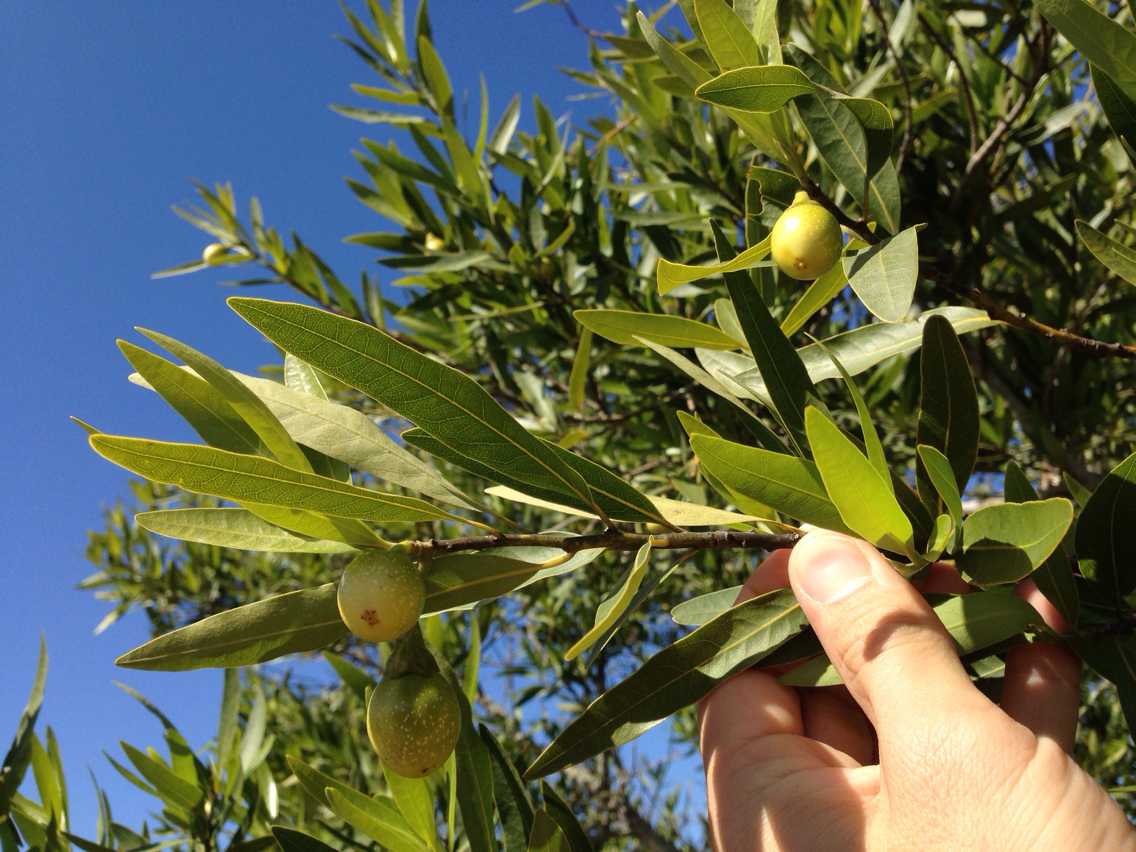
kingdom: Plantae
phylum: Tracheophyta
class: Magnoliopsida
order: Laurales
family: Lauraceae
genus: Umbellularia
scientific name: Umbellularia californica
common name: California bay
